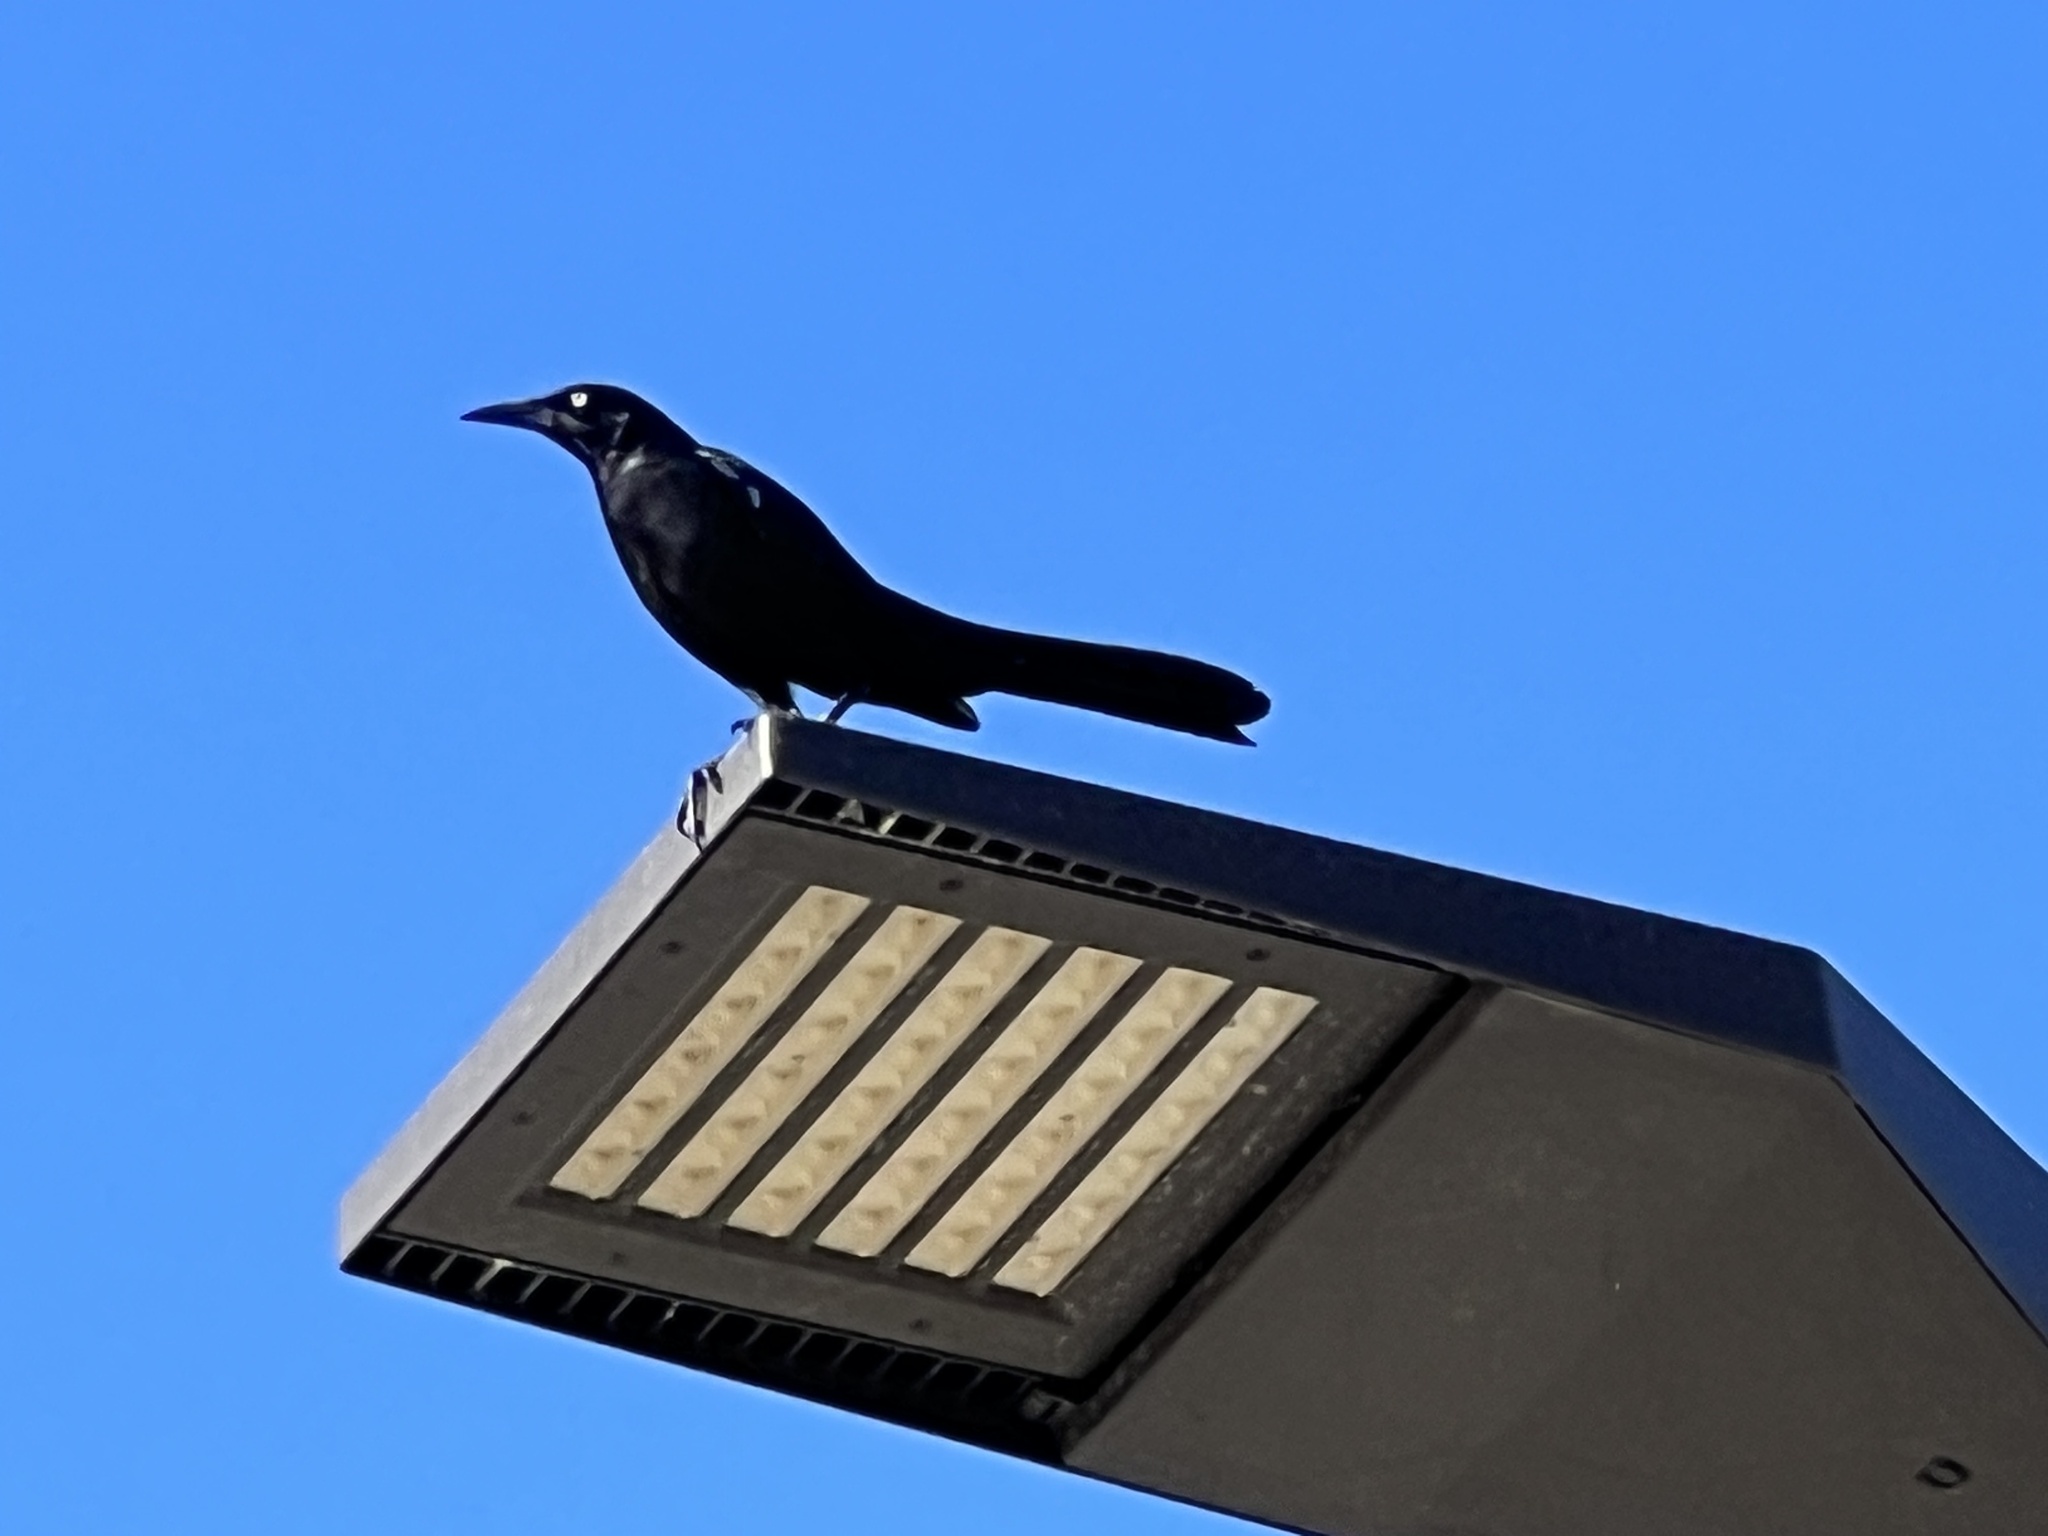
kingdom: Animalia
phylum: Chordata
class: Aves
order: Passeriformes
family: Icteridae
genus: Quiscalus
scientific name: Quiscalus mexicanus
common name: Great-tailed grackle
